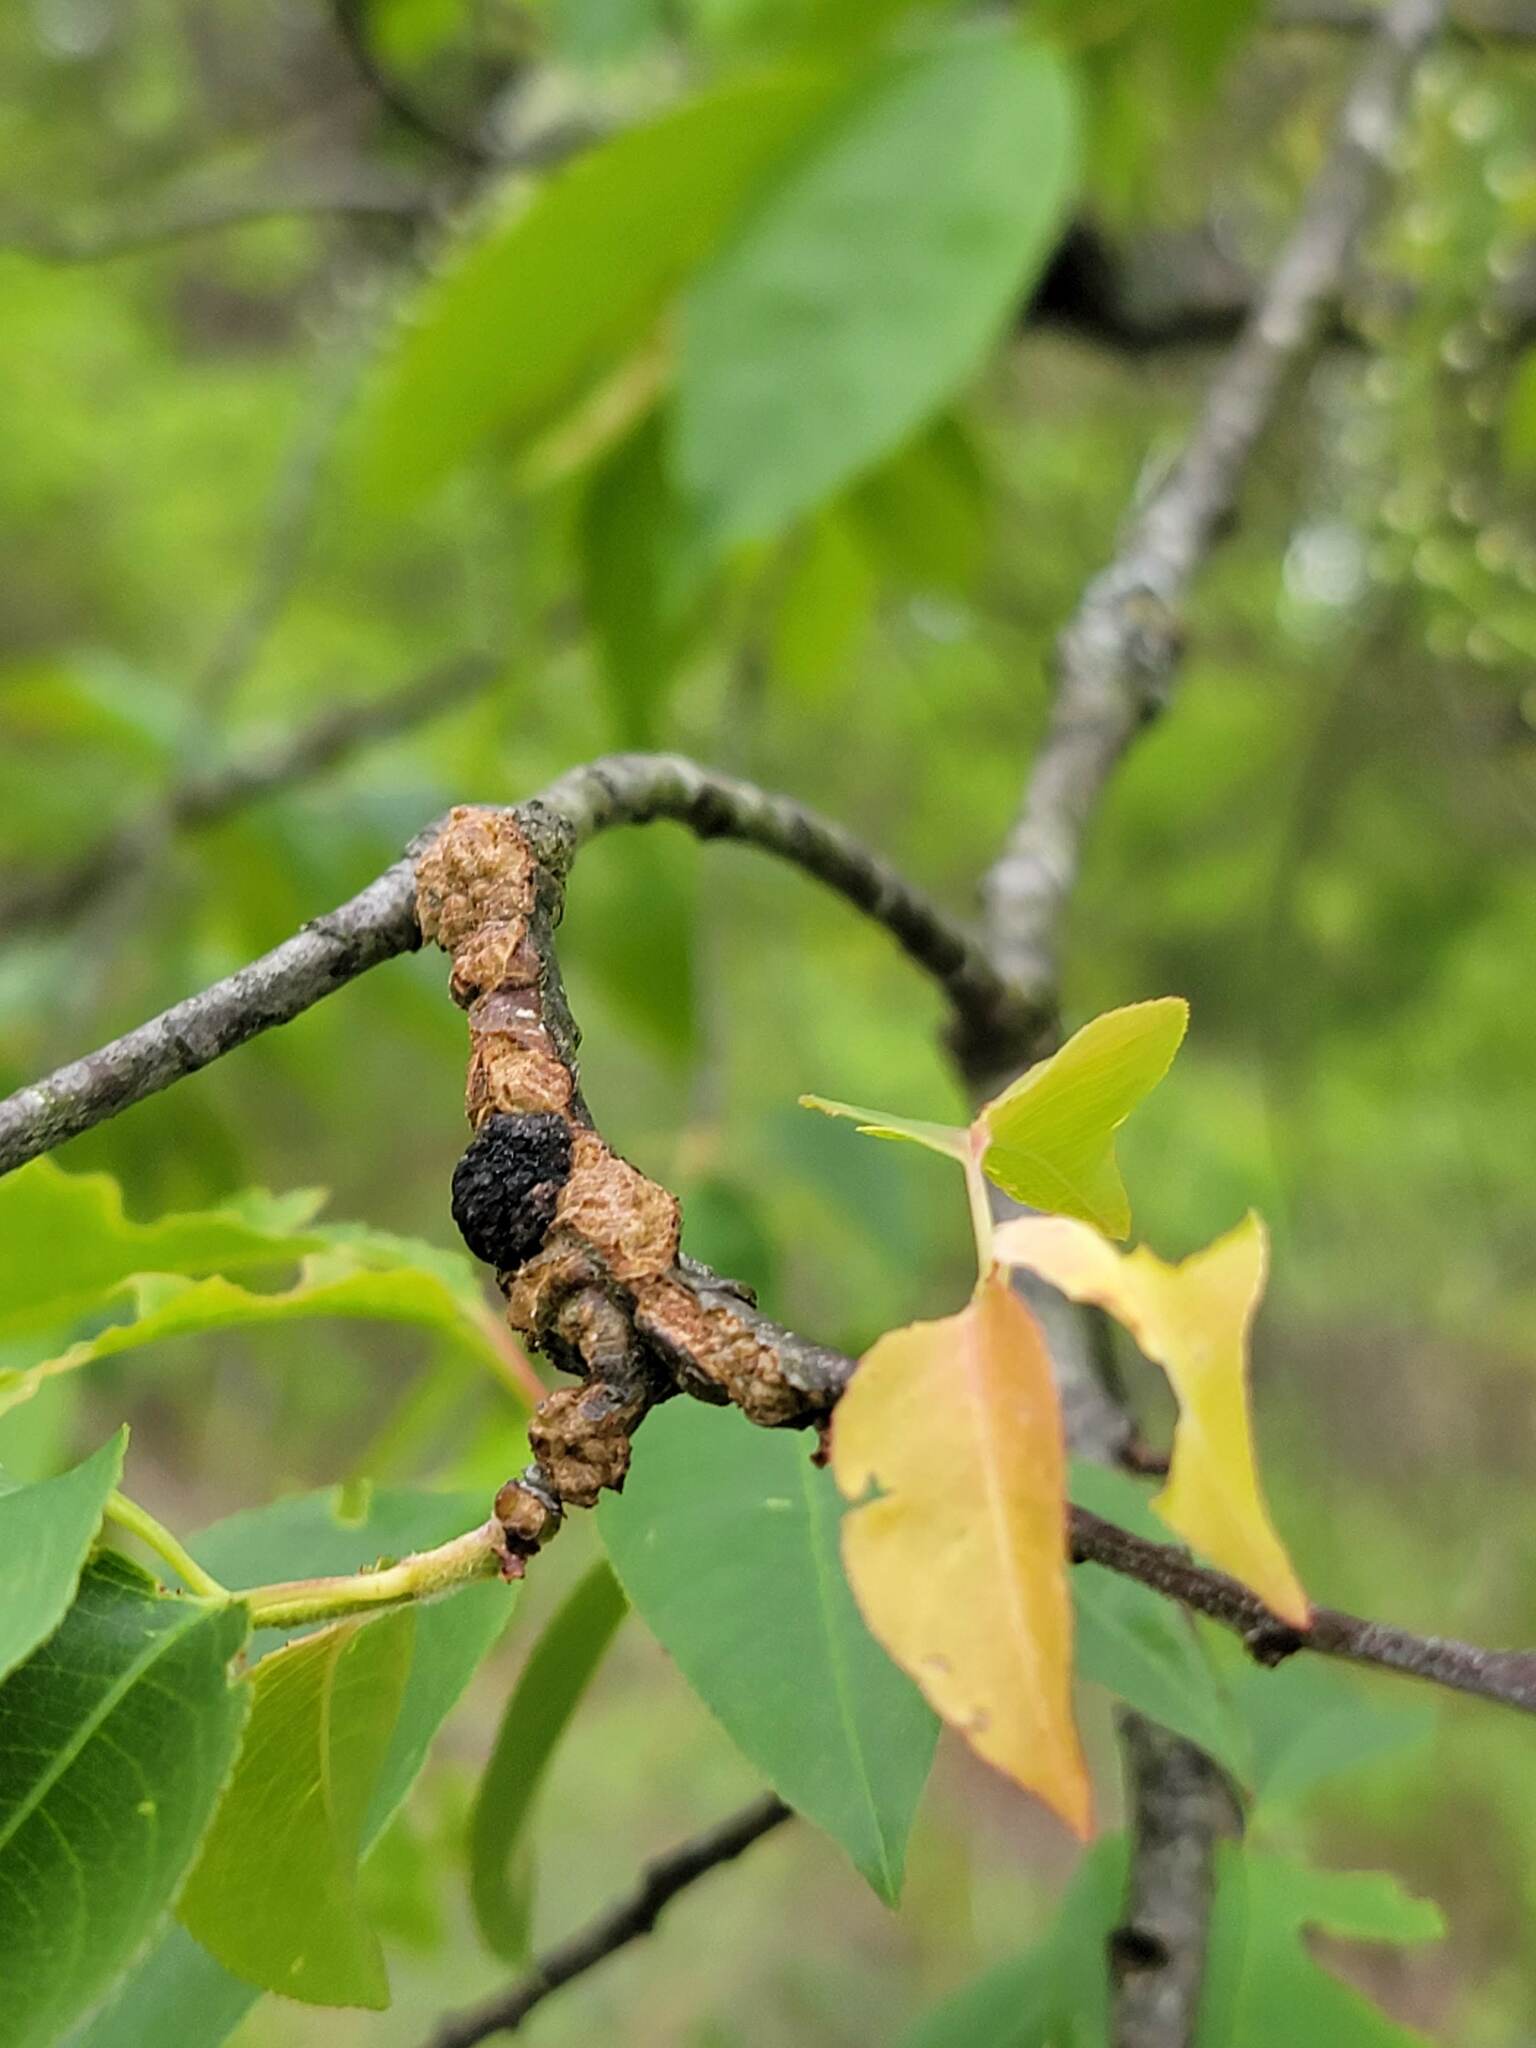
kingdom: Fungi
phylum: Ascomycota
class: Dothideomycetes
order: Venturiales
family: Venturiaceae
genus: Apiosporina
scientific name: Apiosporina morbosa
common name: Black knot
